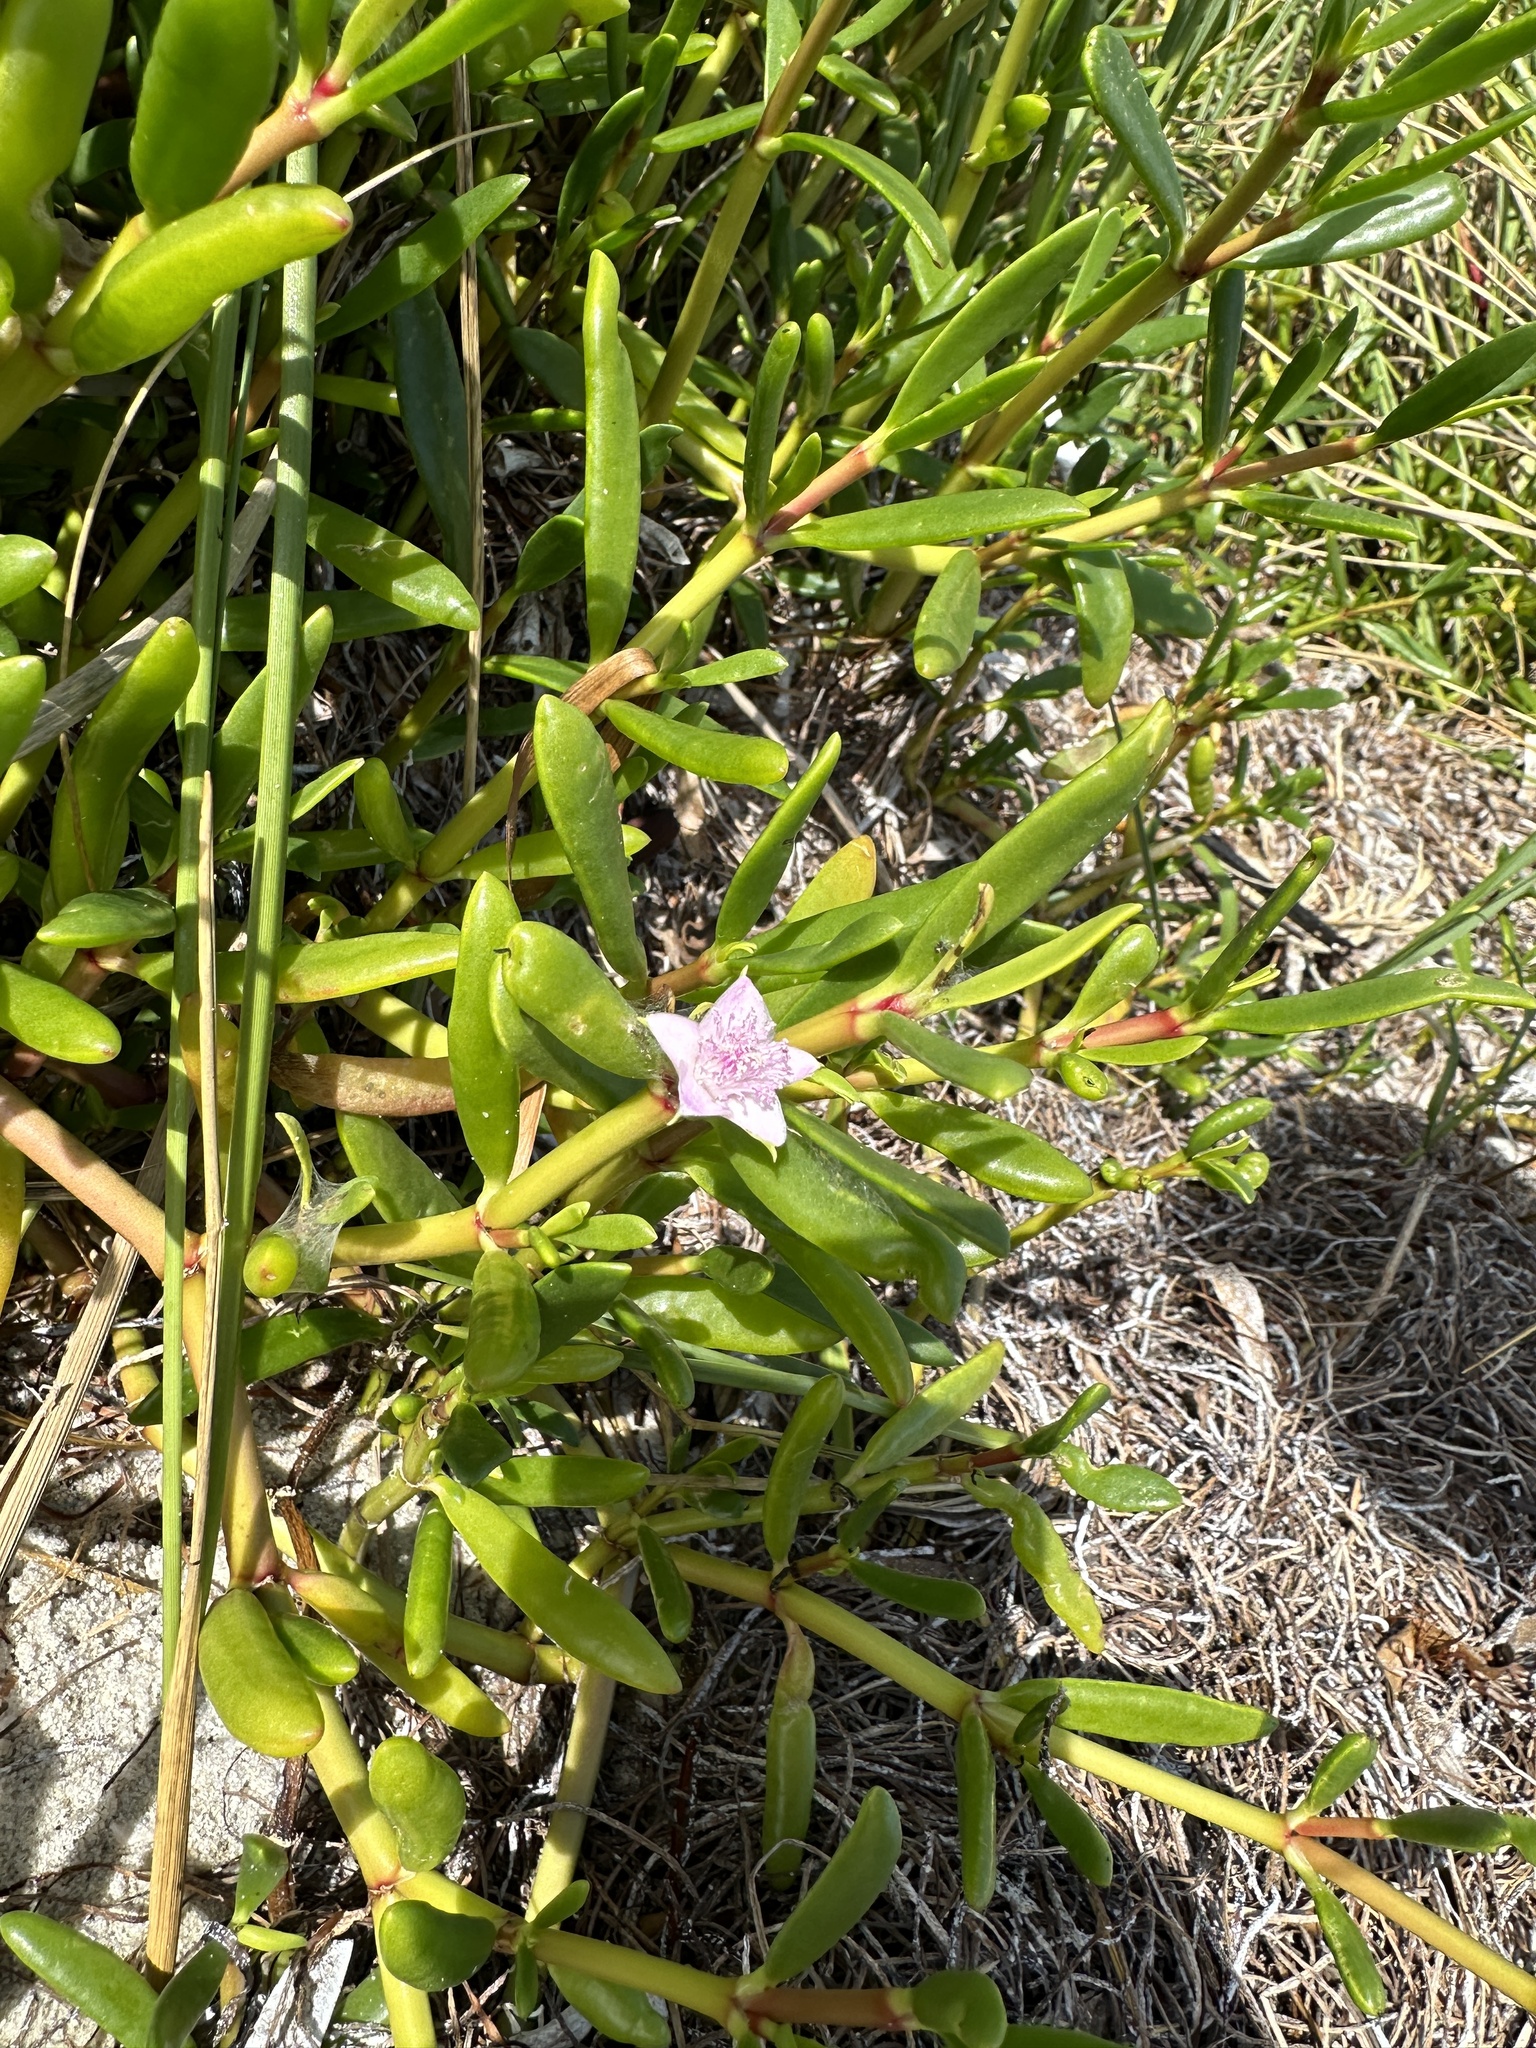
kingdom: Plantae
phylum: Tracheophyta
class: Magnoliopsida
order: Caryophyllales
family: Aizoaceae
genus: Sesuvium
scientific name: Sesuvium portulacastrum
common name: Sea-purslane
